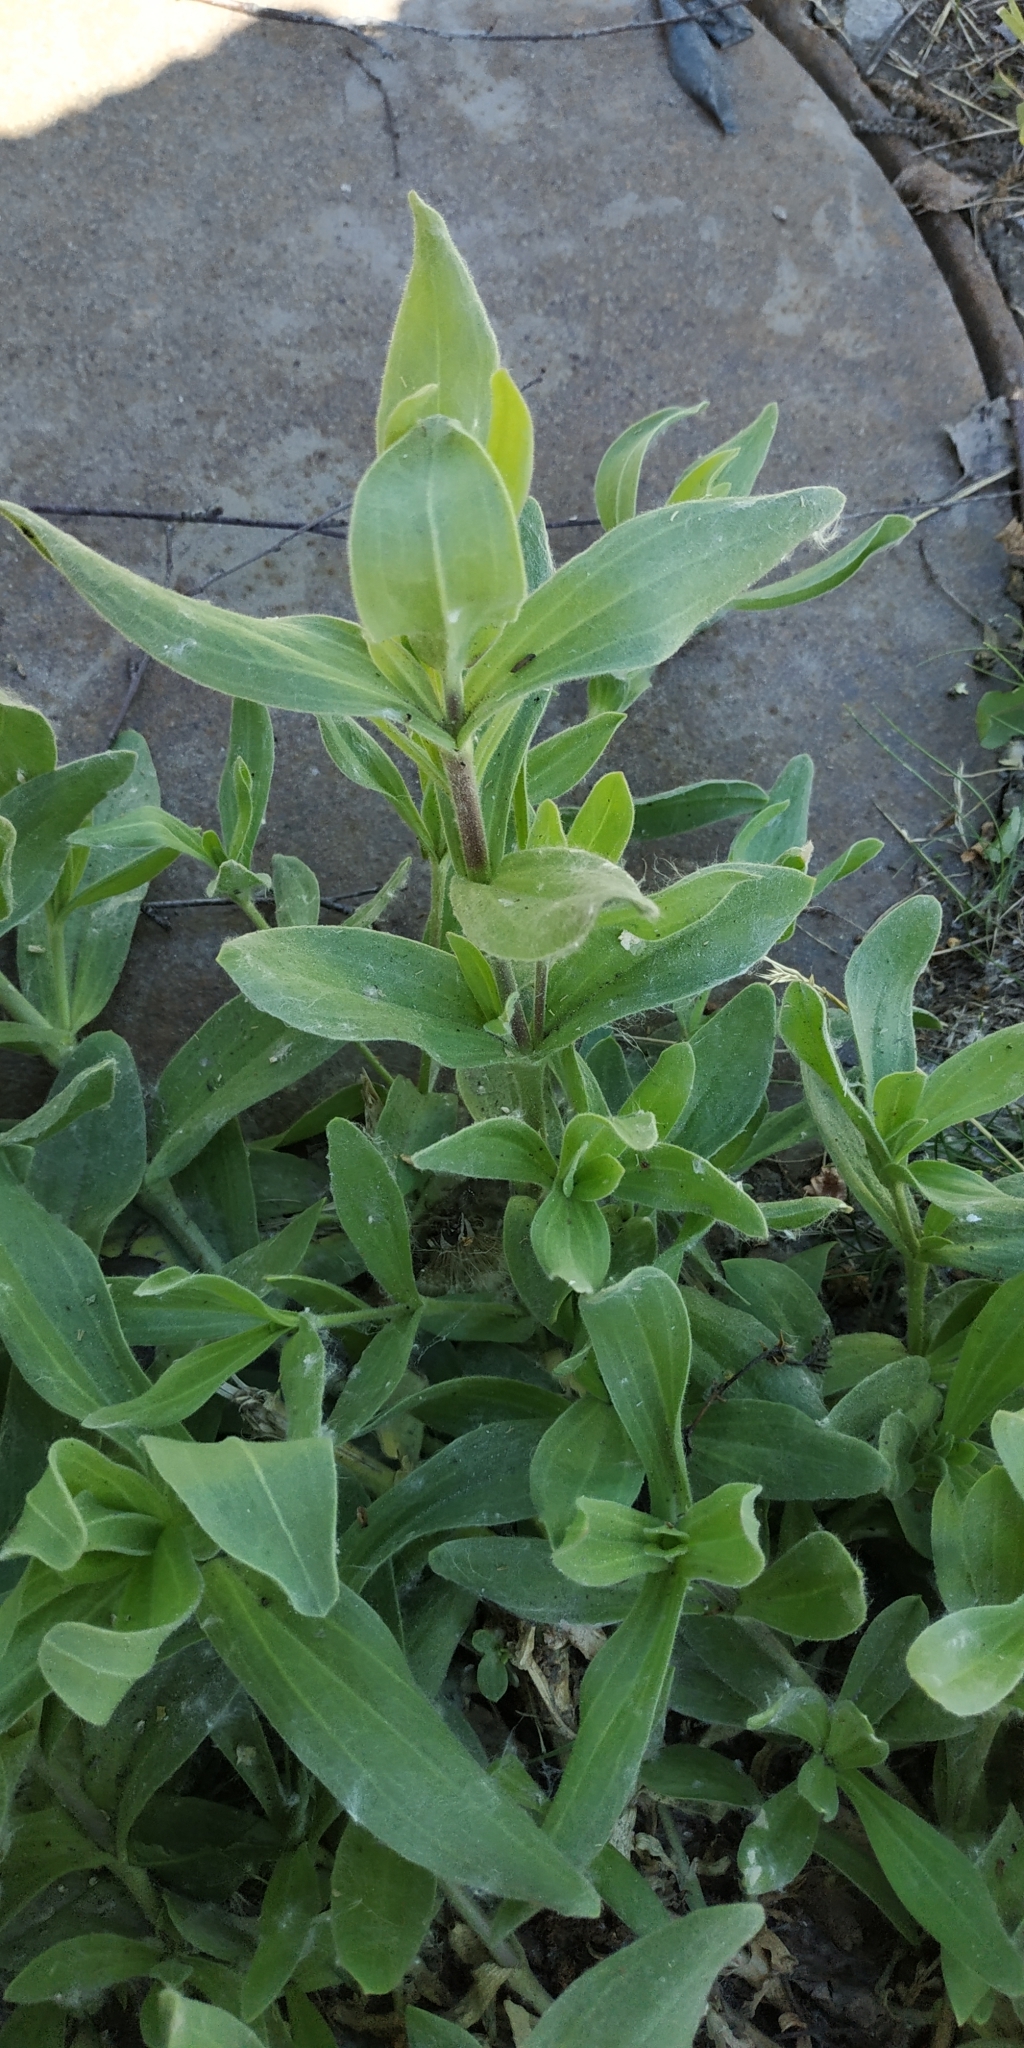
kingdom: Plantae
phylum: Tracheophyta
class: Magnoliopsida
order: Caryophyllales
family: Caryophyllaceae
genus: Silene
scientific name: Silene latifolia
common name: White campion
